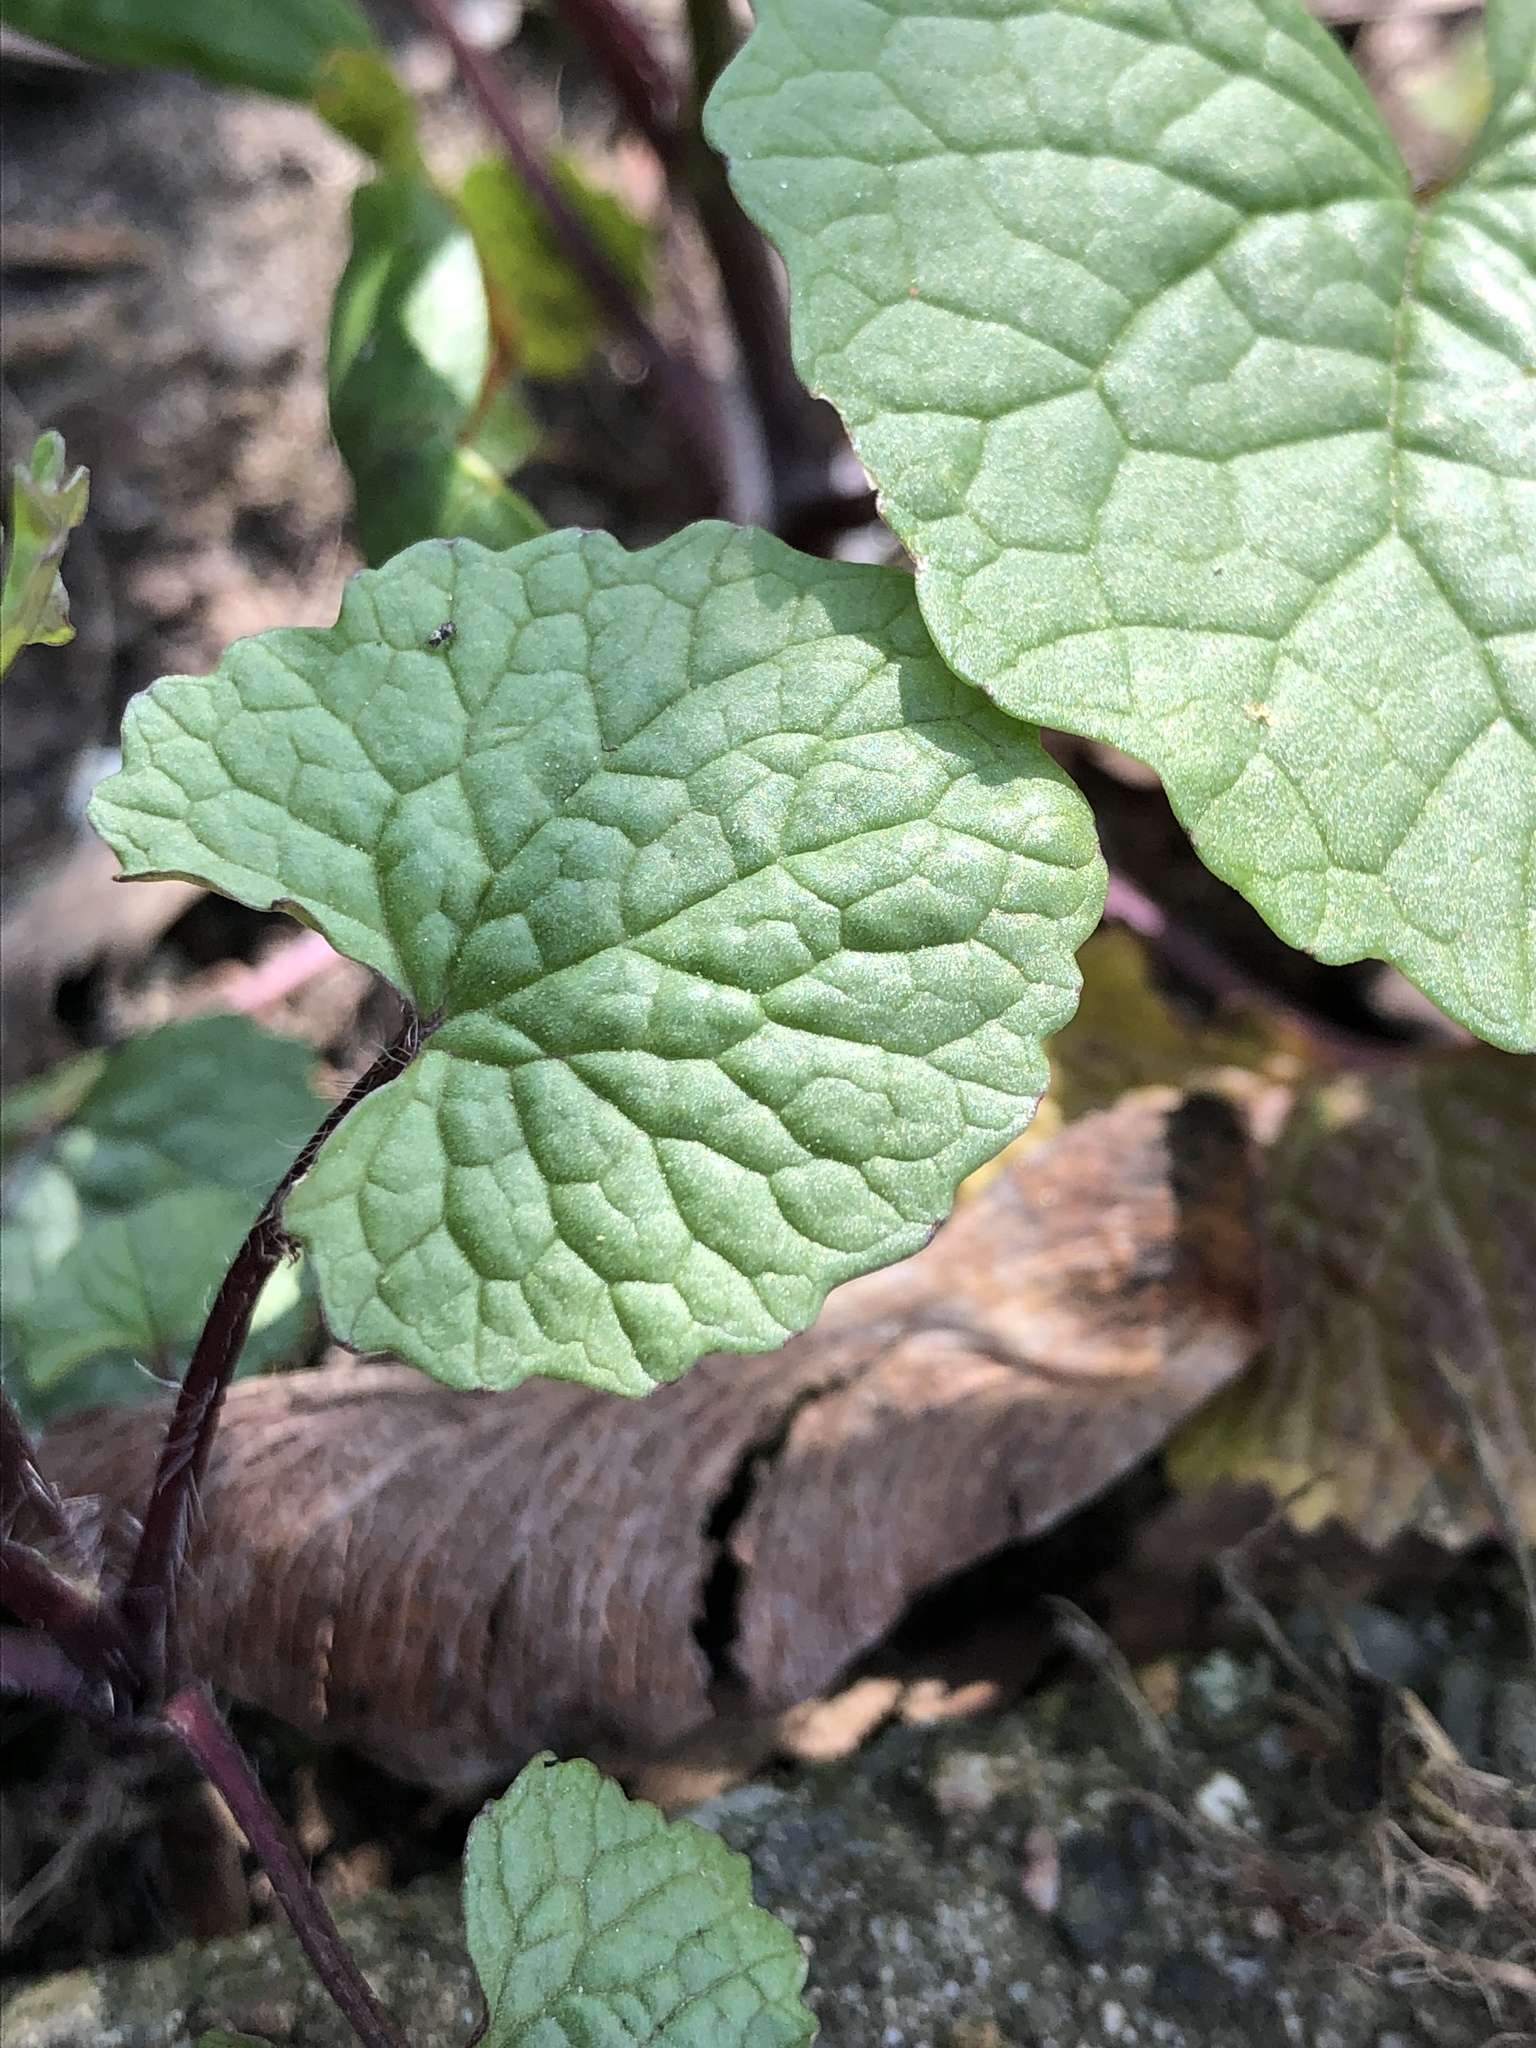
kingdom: Plantae
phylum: Tracheophyta
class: Magnoliopsida
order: Brassicales
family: Brassicaceae
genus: Alliaria
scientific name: Alliaria petiolata
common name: Garlic mustard
